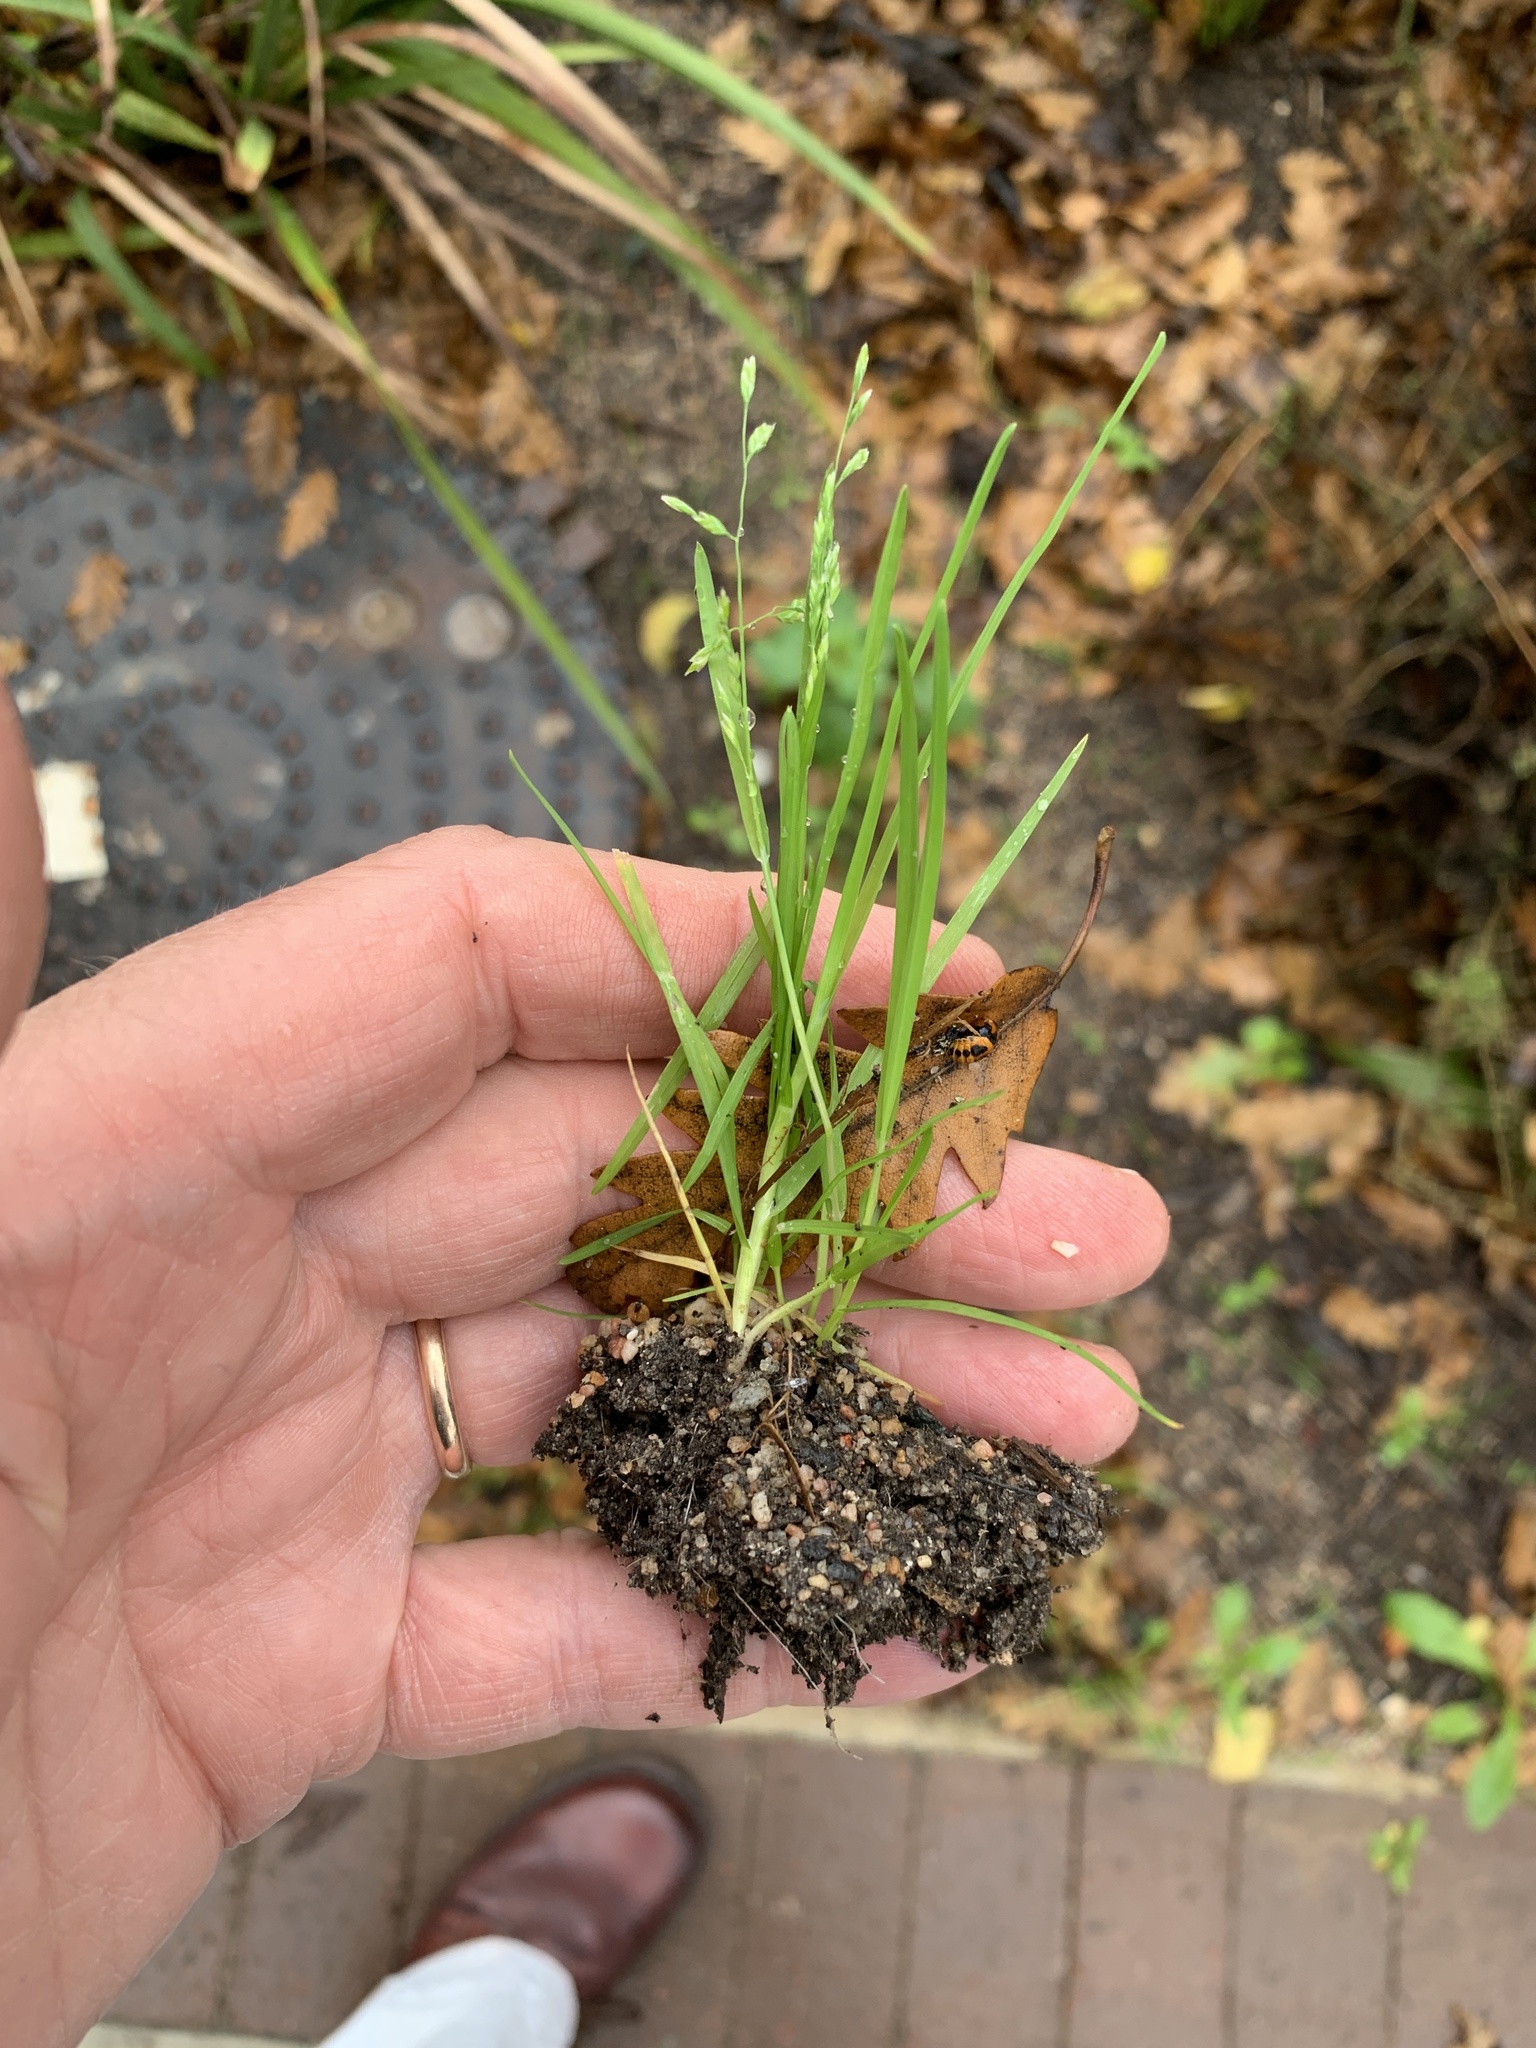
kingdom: Plantae
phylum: Tracheophyta
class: Liliopsida
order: Poales
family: Poaceae
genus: Poa
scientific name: Poa annua
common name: Annual bluegrass
